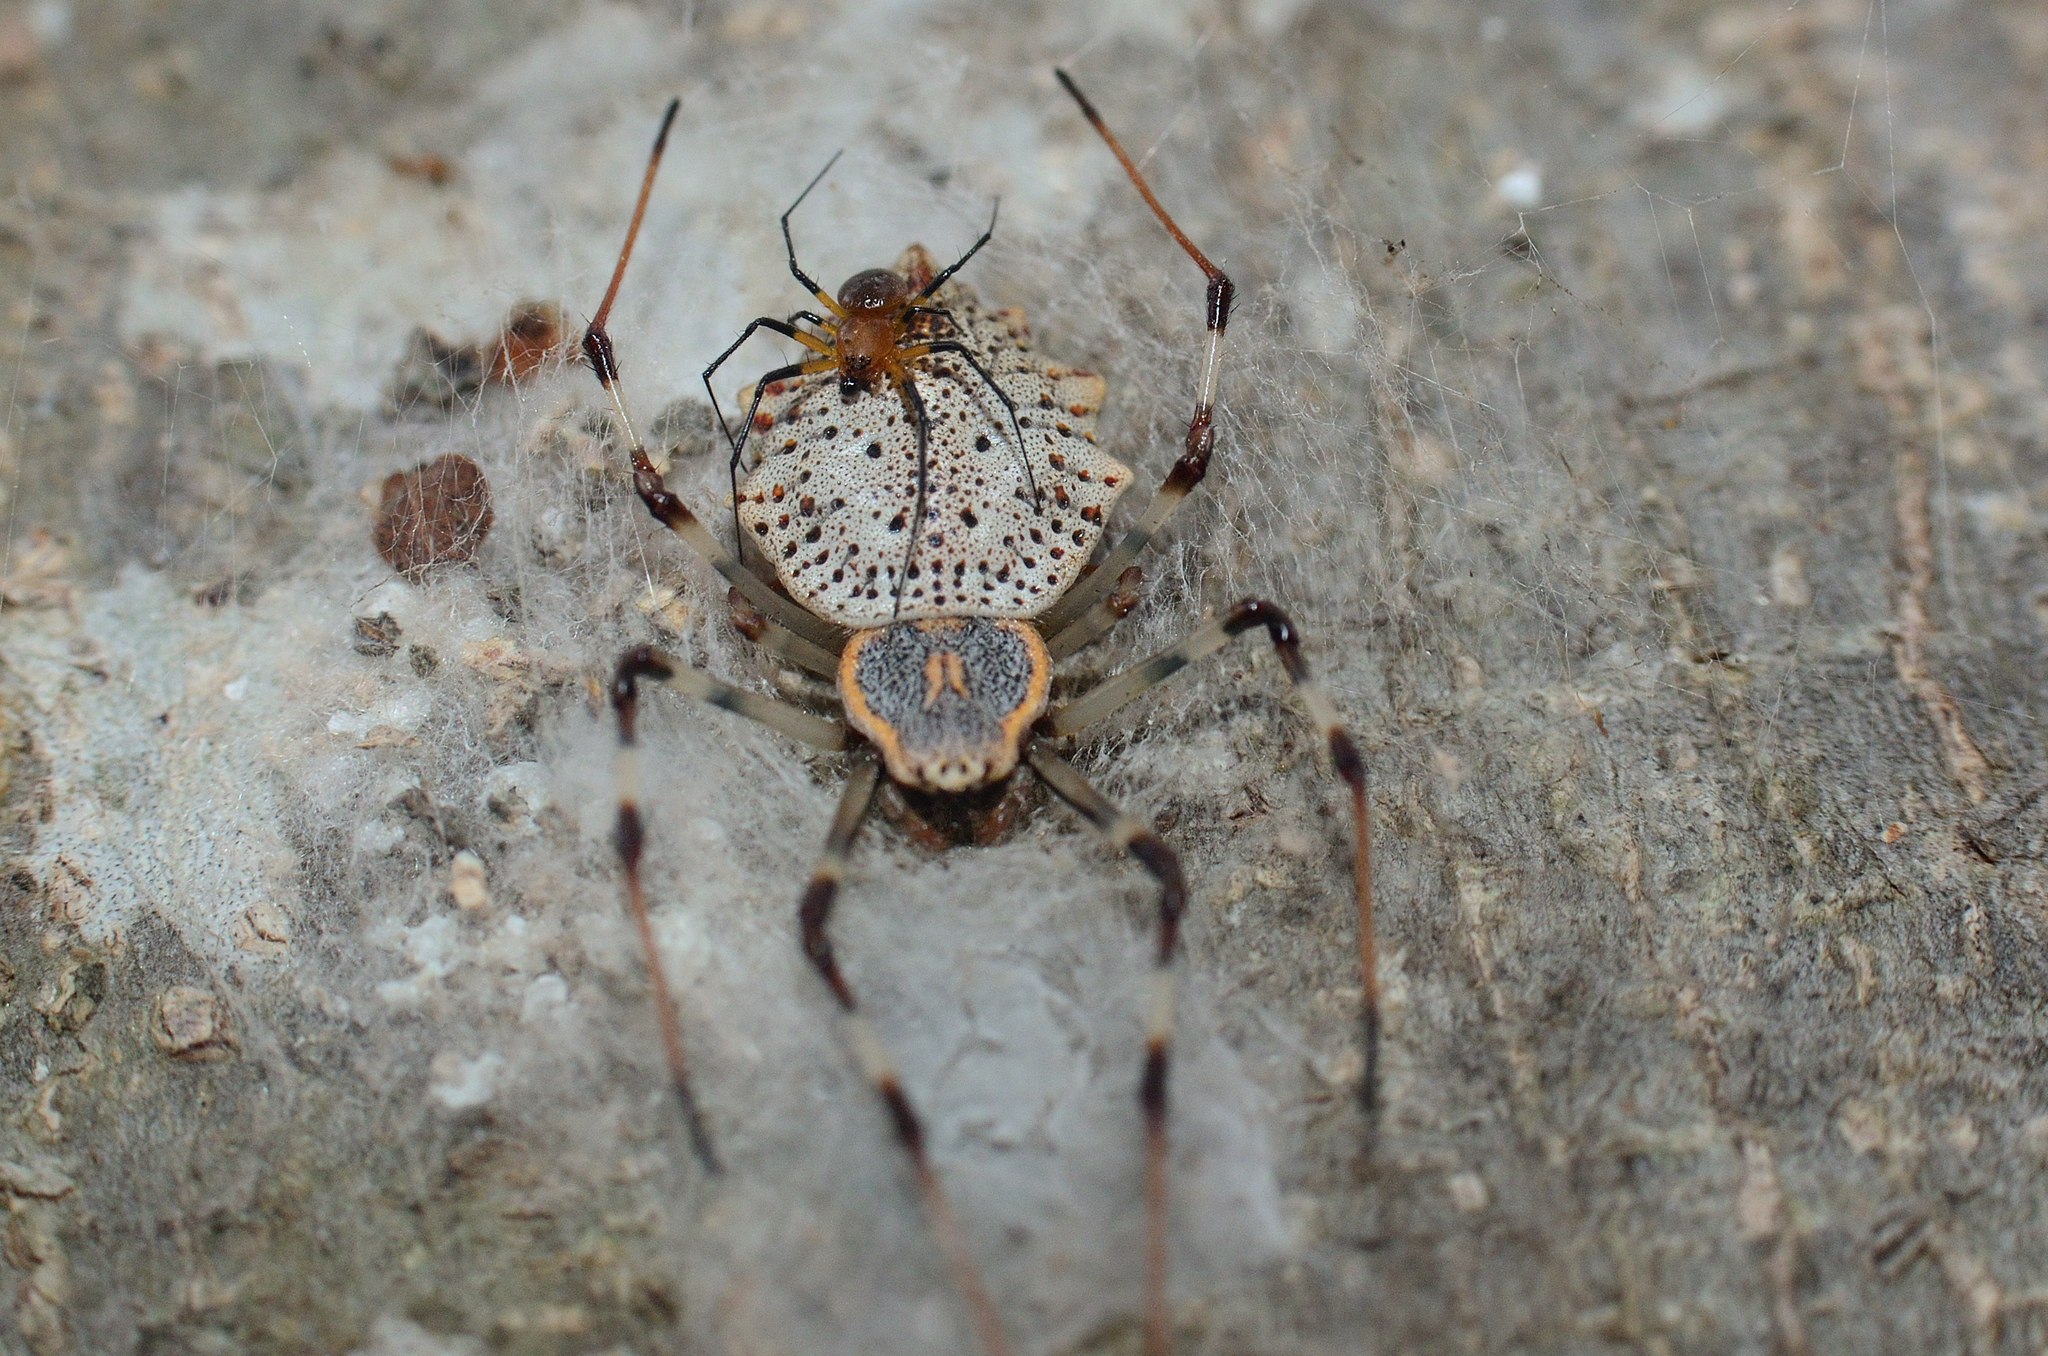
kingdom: Animalia
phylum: Arthropoda
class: Arachnida
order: Araneae
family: Araneidae
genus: Herennia
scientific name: Herennia multipuncta
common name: Spotted coin spider
